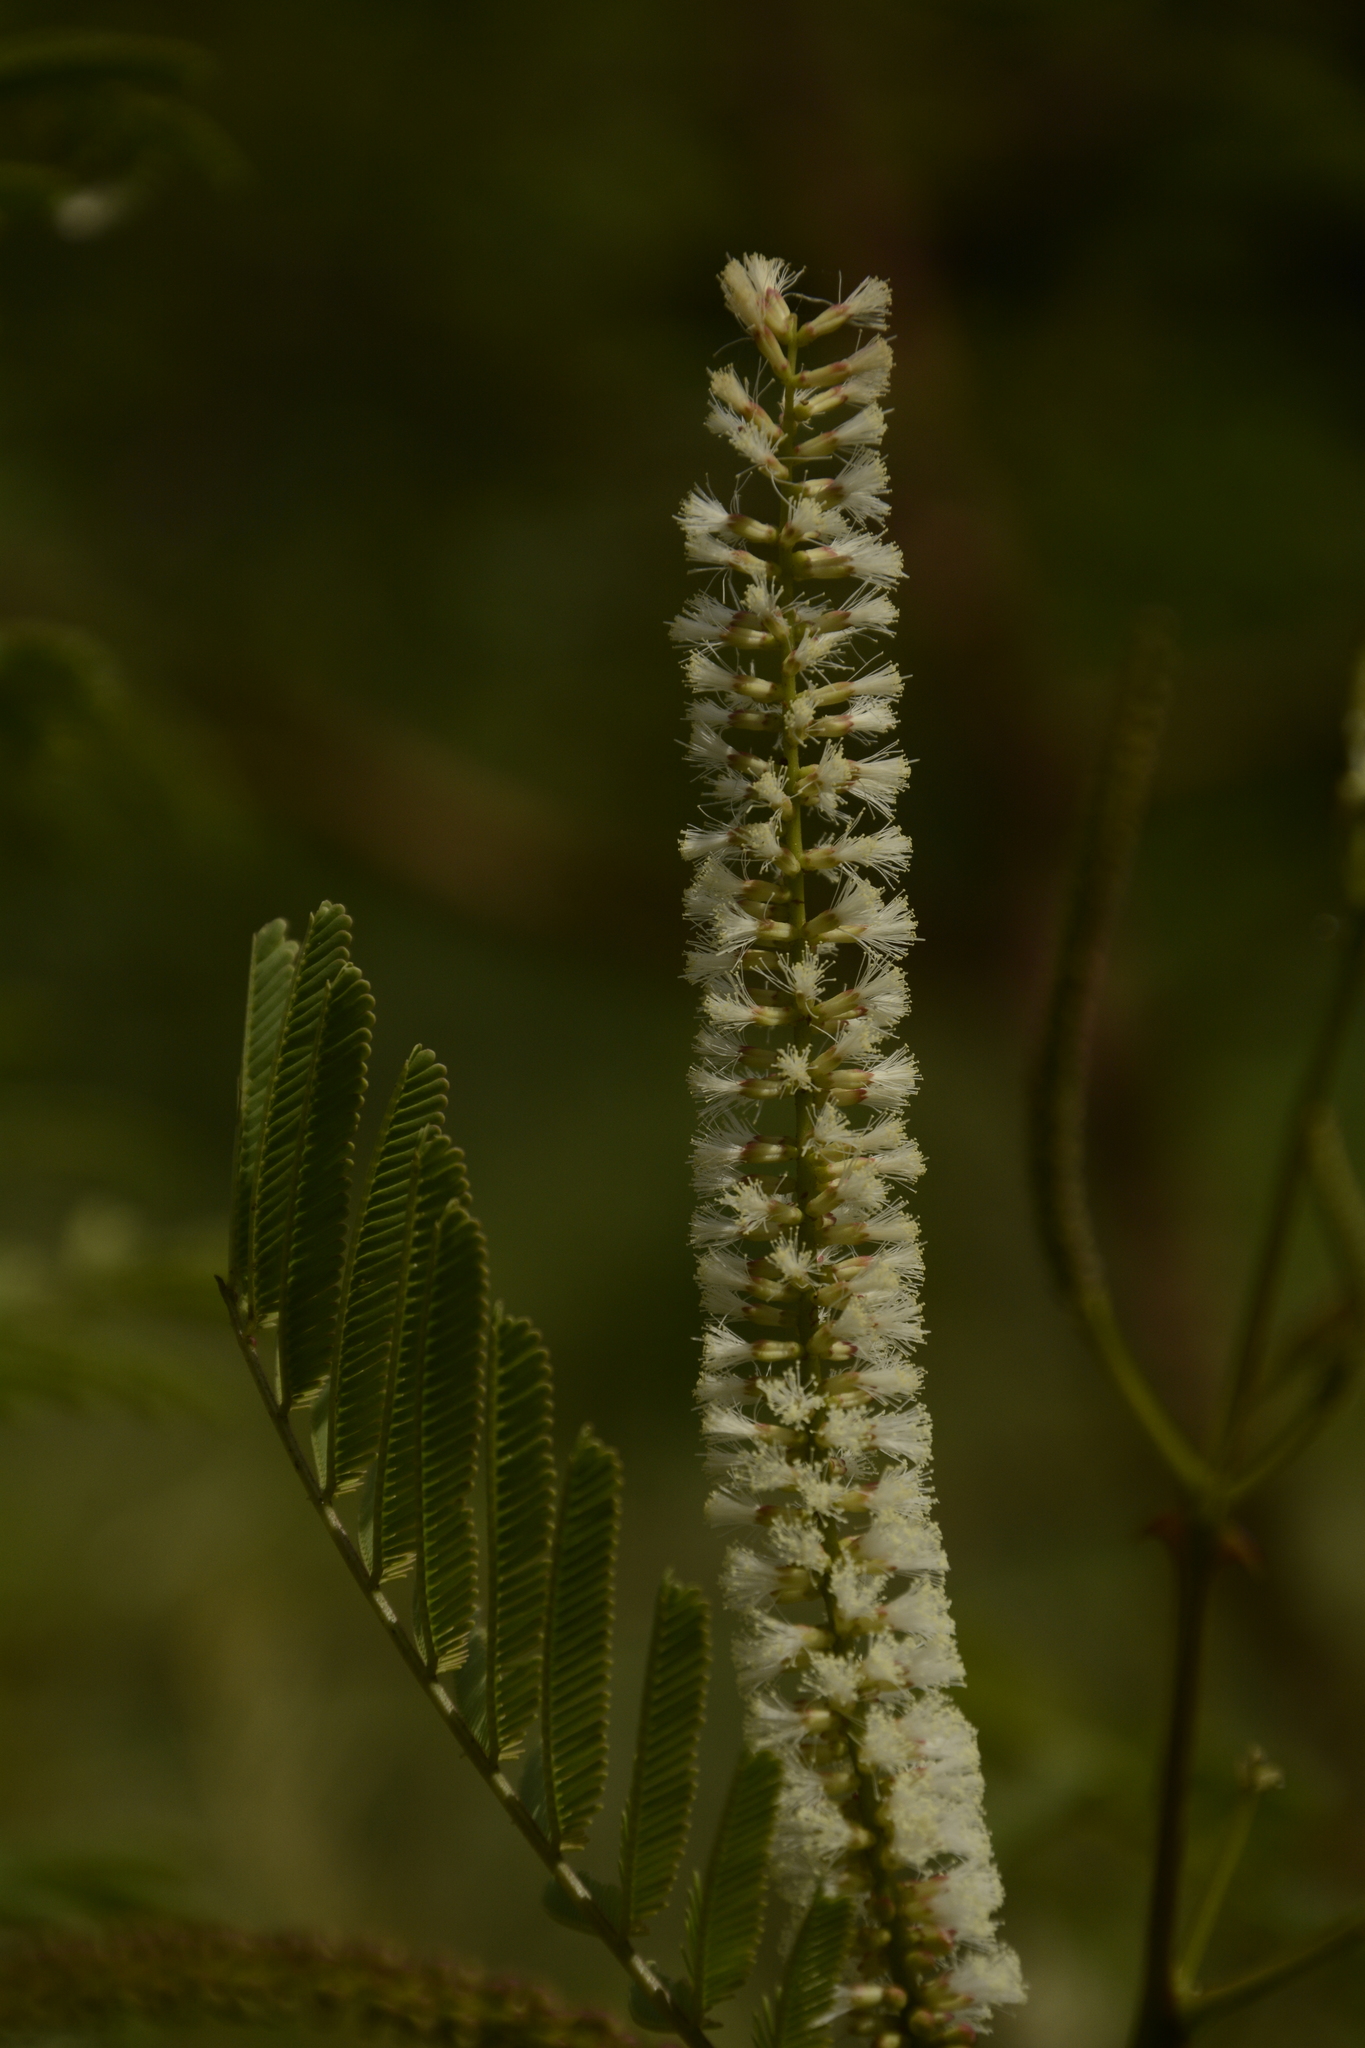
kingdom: Plantae
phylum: Tracheophyta
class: Magnoliopsida
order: Fabales
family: Fabaceae
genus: Senegalia
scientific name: Senegalia chundra
